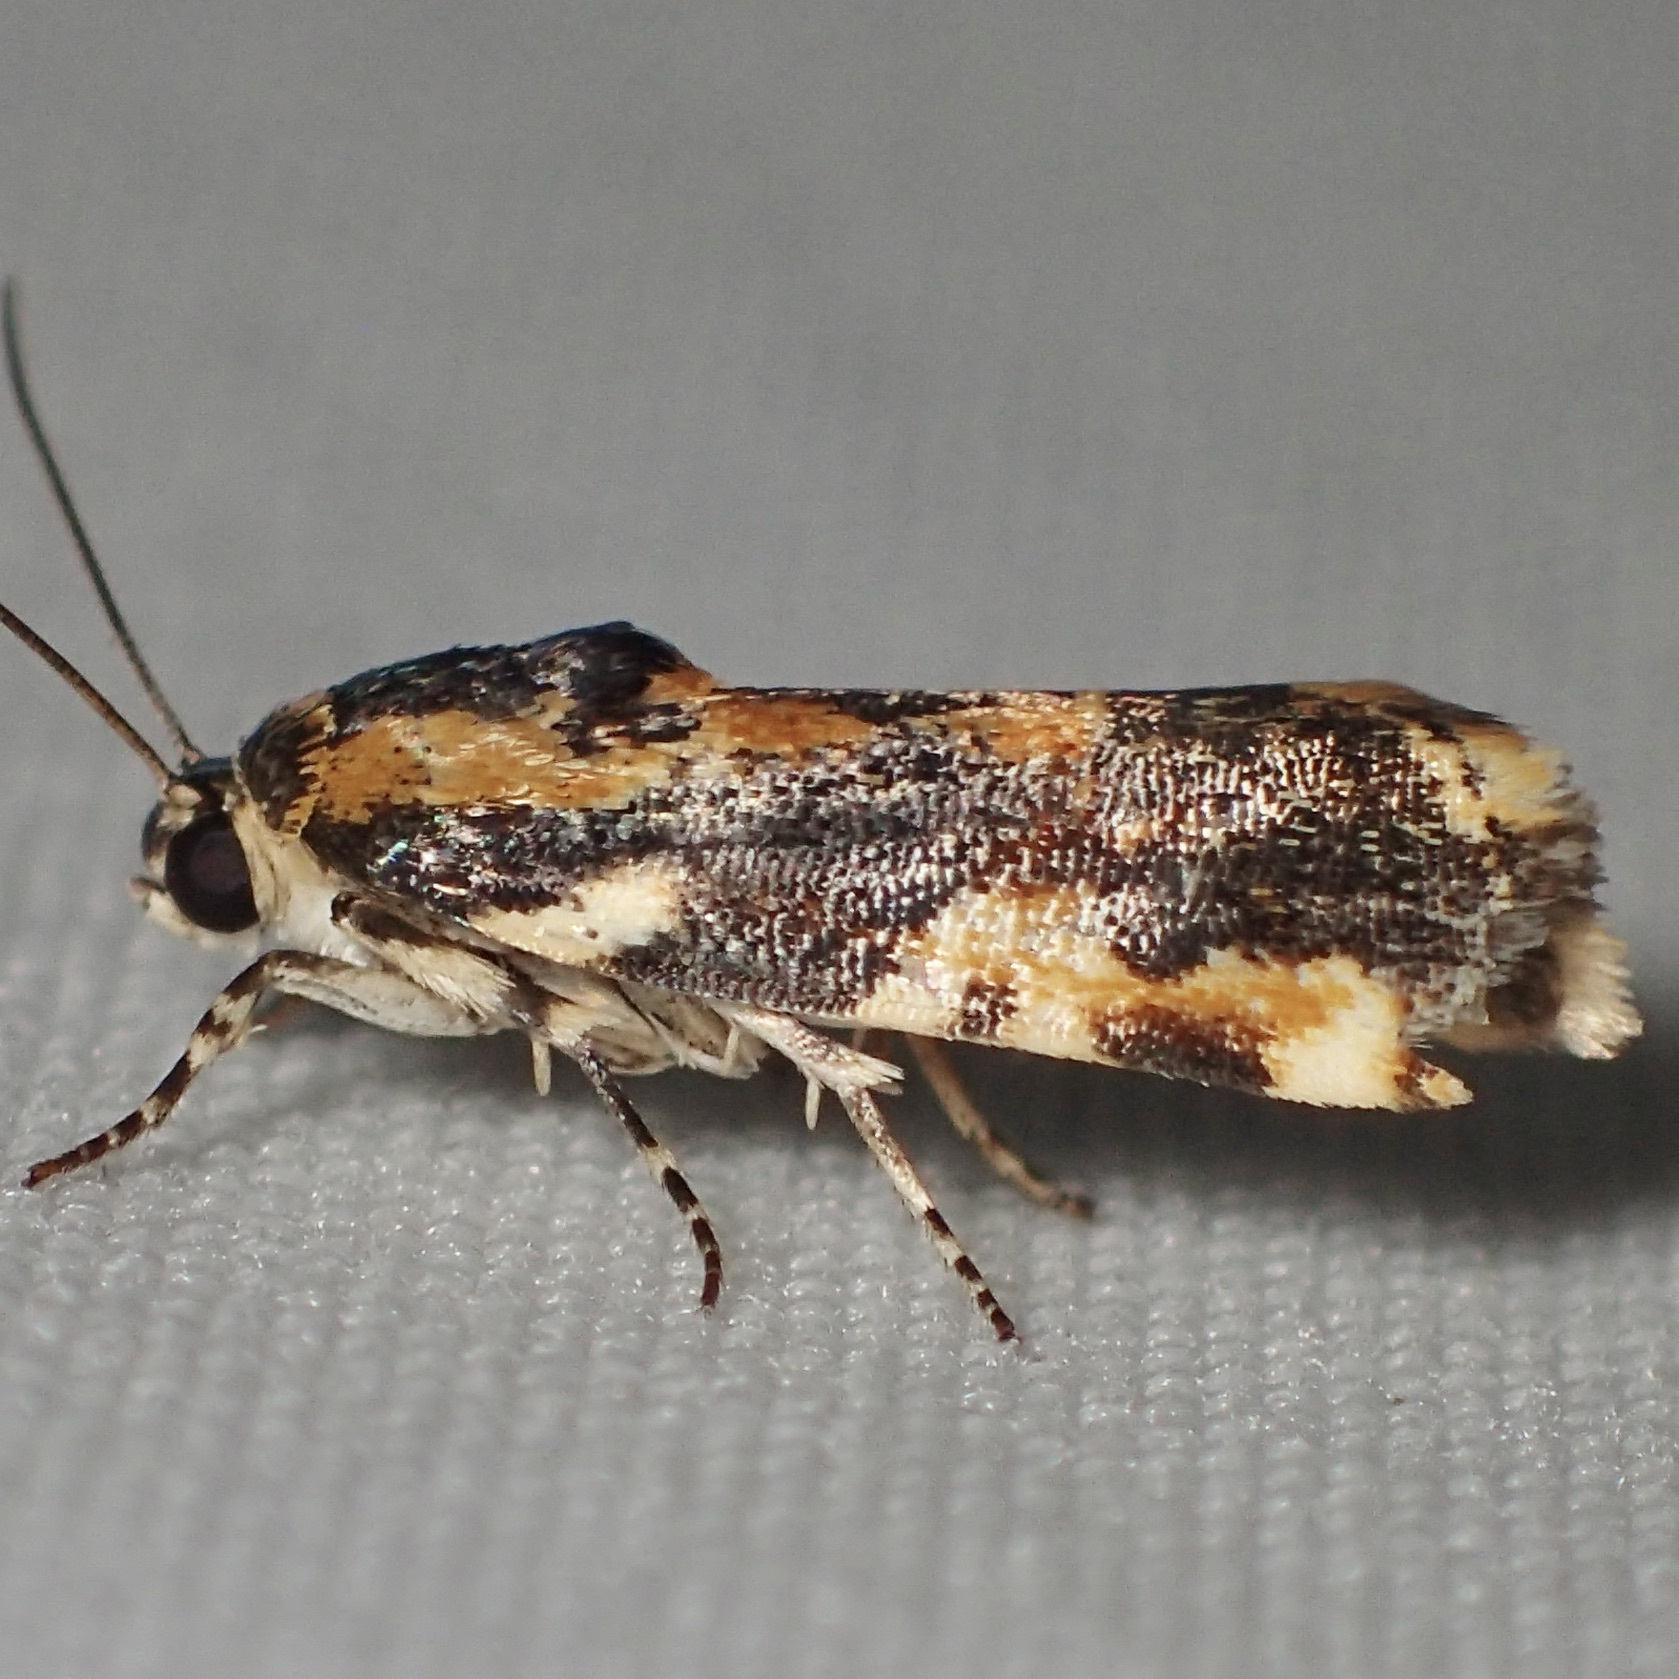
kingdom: Animalia
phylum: Arthropoda
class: Insecta
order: Lepidoptera
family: Noctuidae
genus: Spragueia
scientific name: Spragueia jaguaralis
